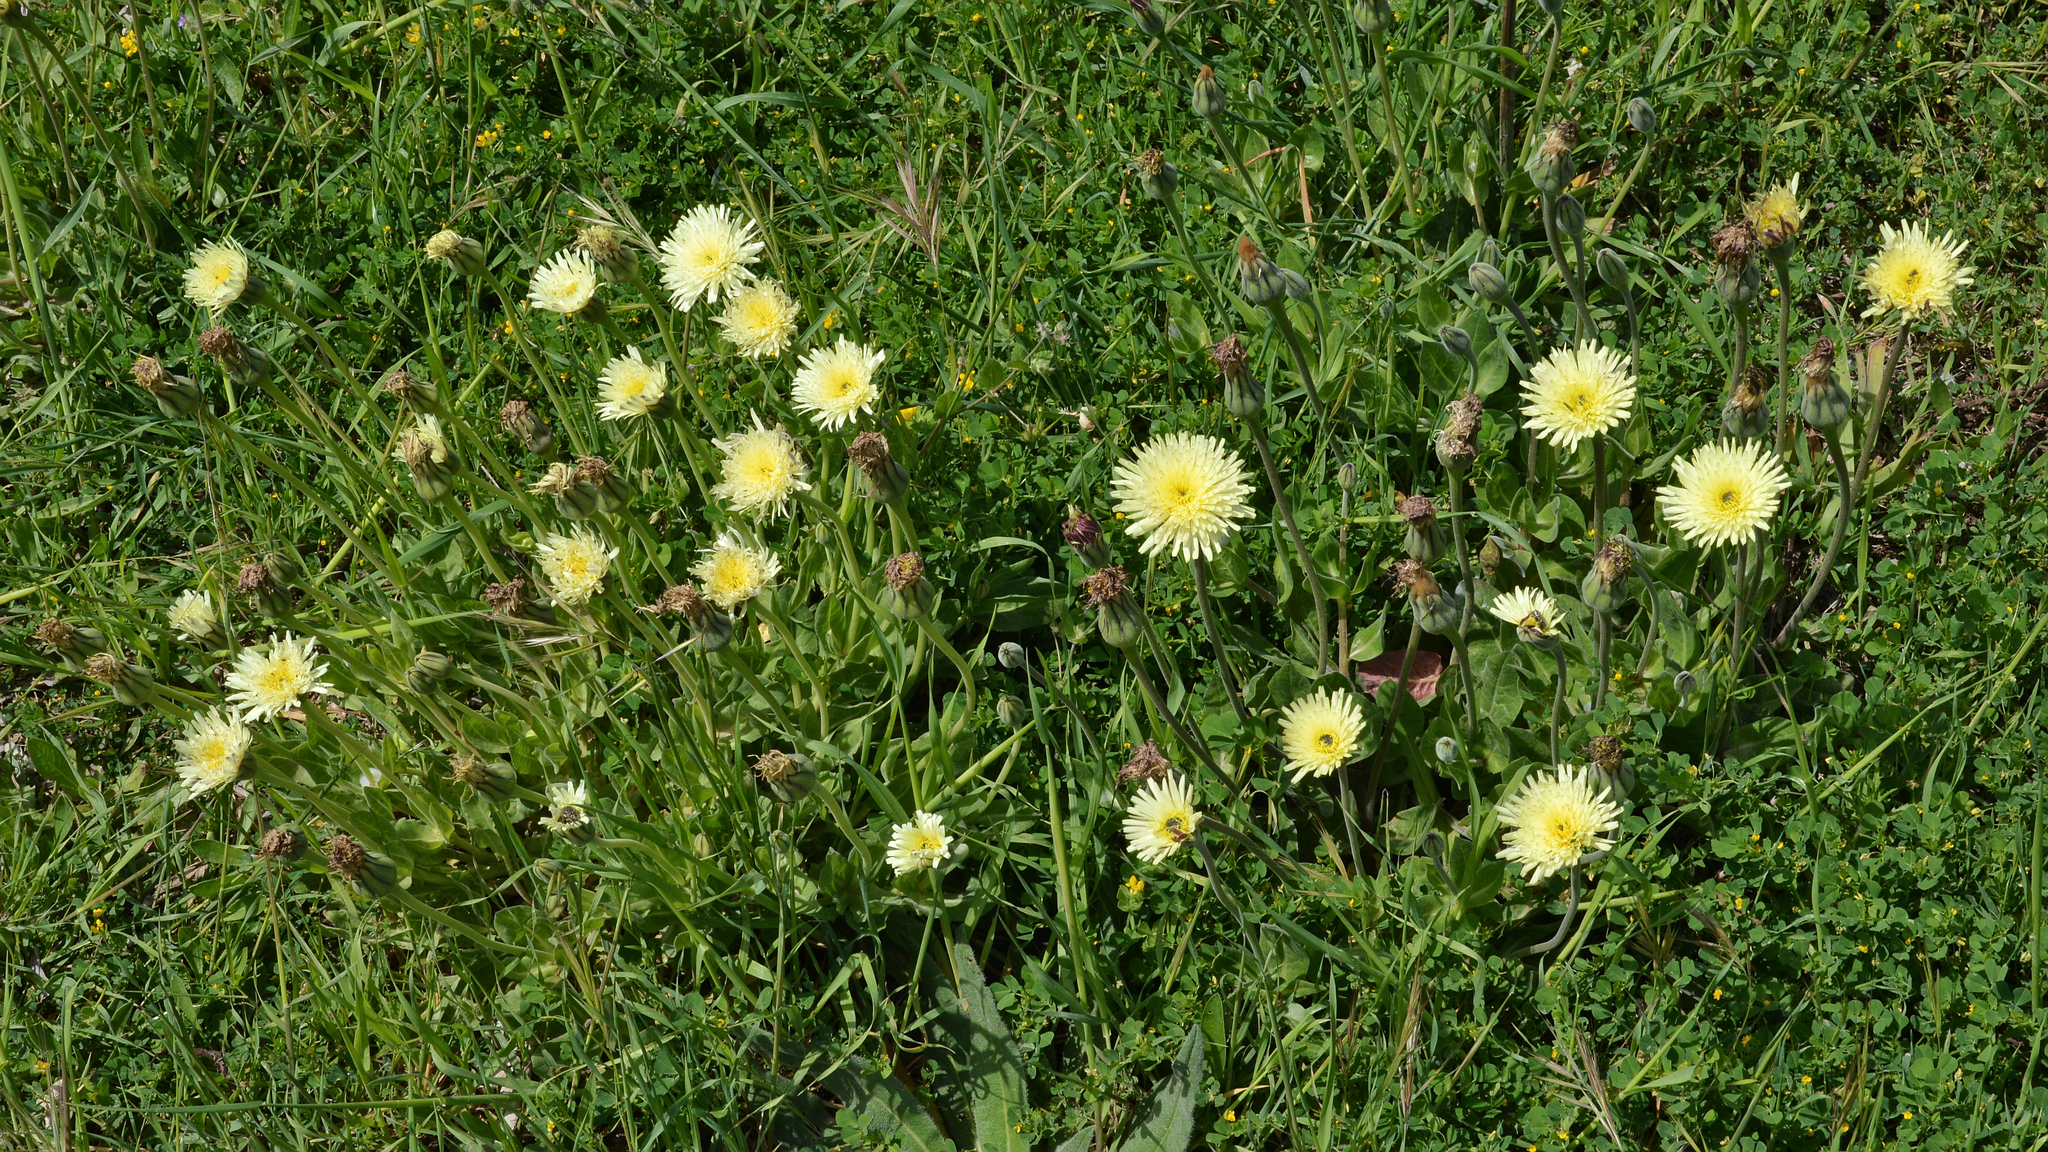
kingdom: Plantae
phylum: Tracheophyta
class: Magnoliopsida
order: Asterales
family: Asteraceae
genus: Urospermum
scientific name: Urospermum dalechampii
